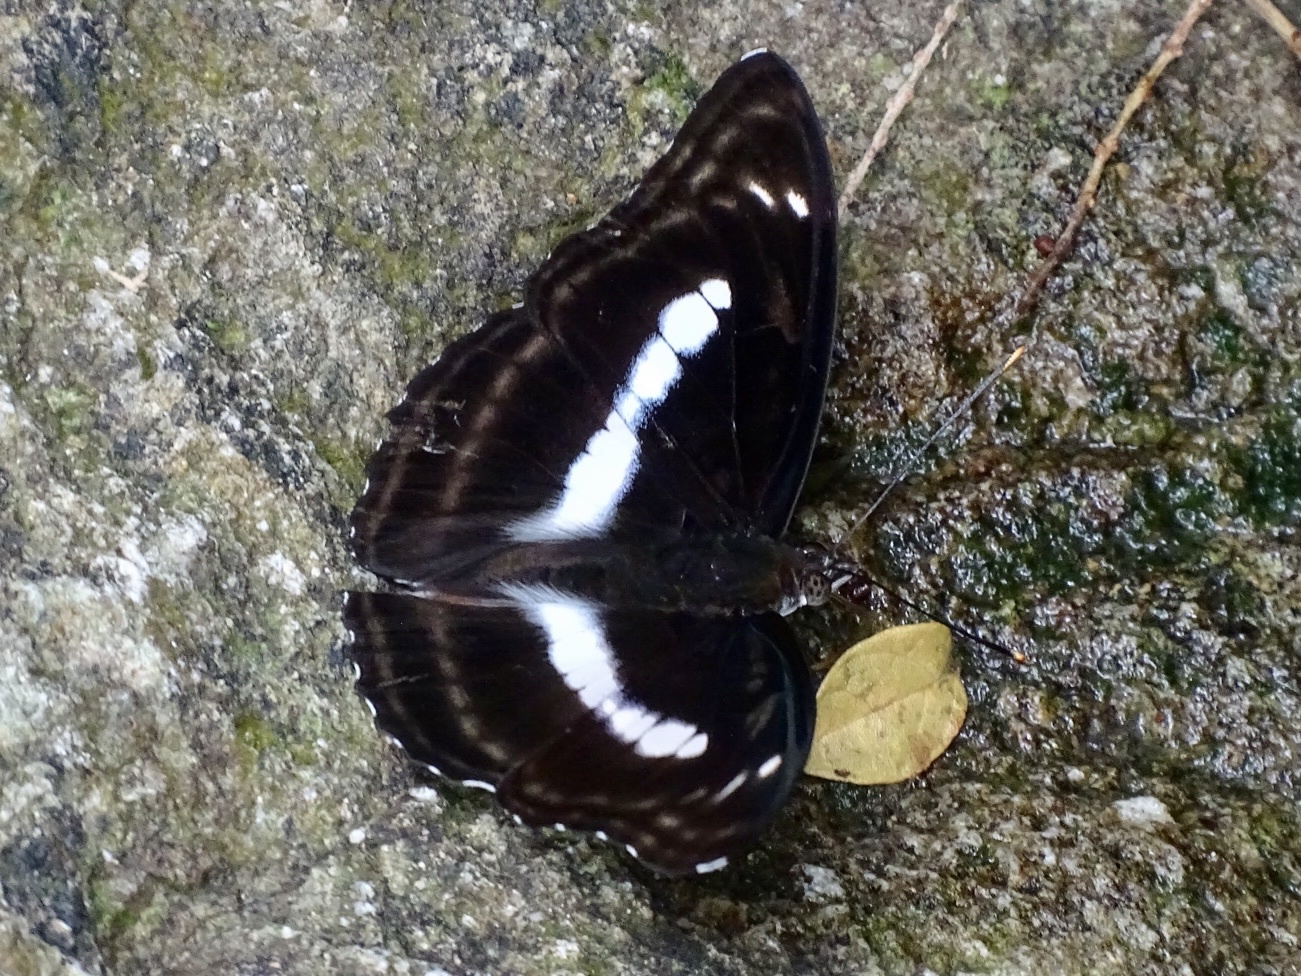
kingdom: Animalia
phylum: Arthropoda
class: Insecta
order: Lepidoptera
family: Nymphalidae
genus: Parathyma
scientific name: Parathyma selenophora
